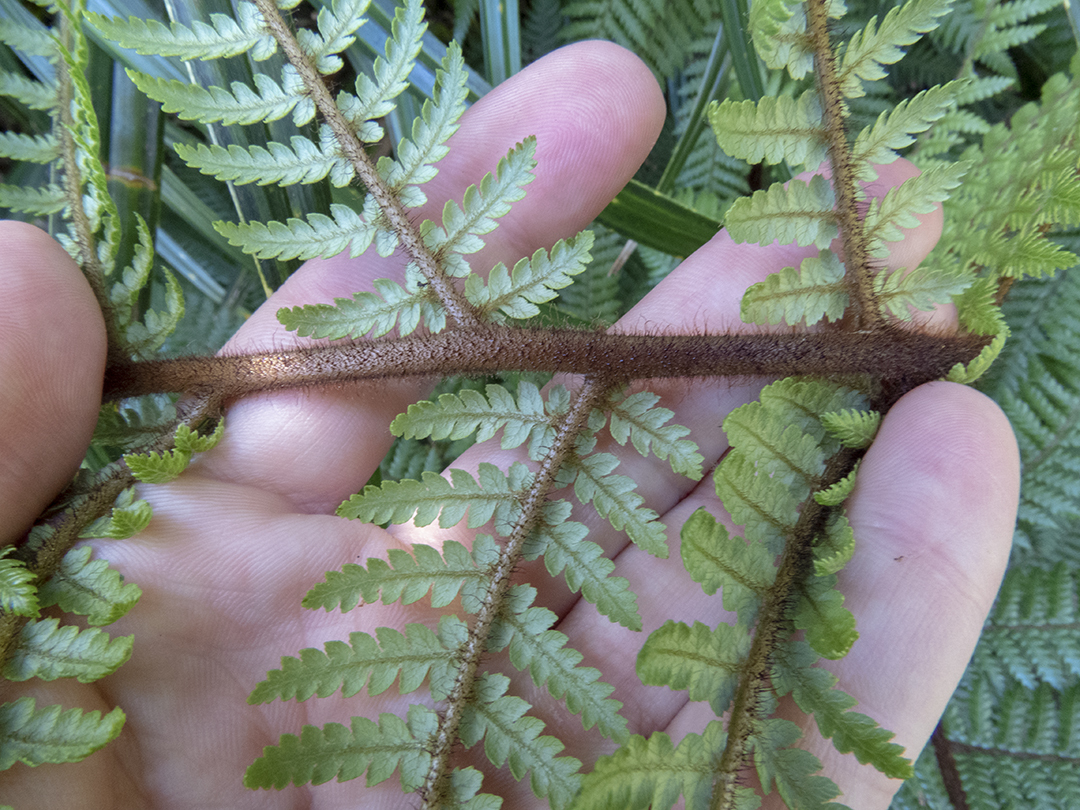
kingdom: Plantae
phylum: Tracheophyta
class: Polypodiopsida
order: Cyatheales
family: Dicksoniaceae
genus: Dicksonia
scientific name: Dicksonia squarrosa
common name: Hard treefern
